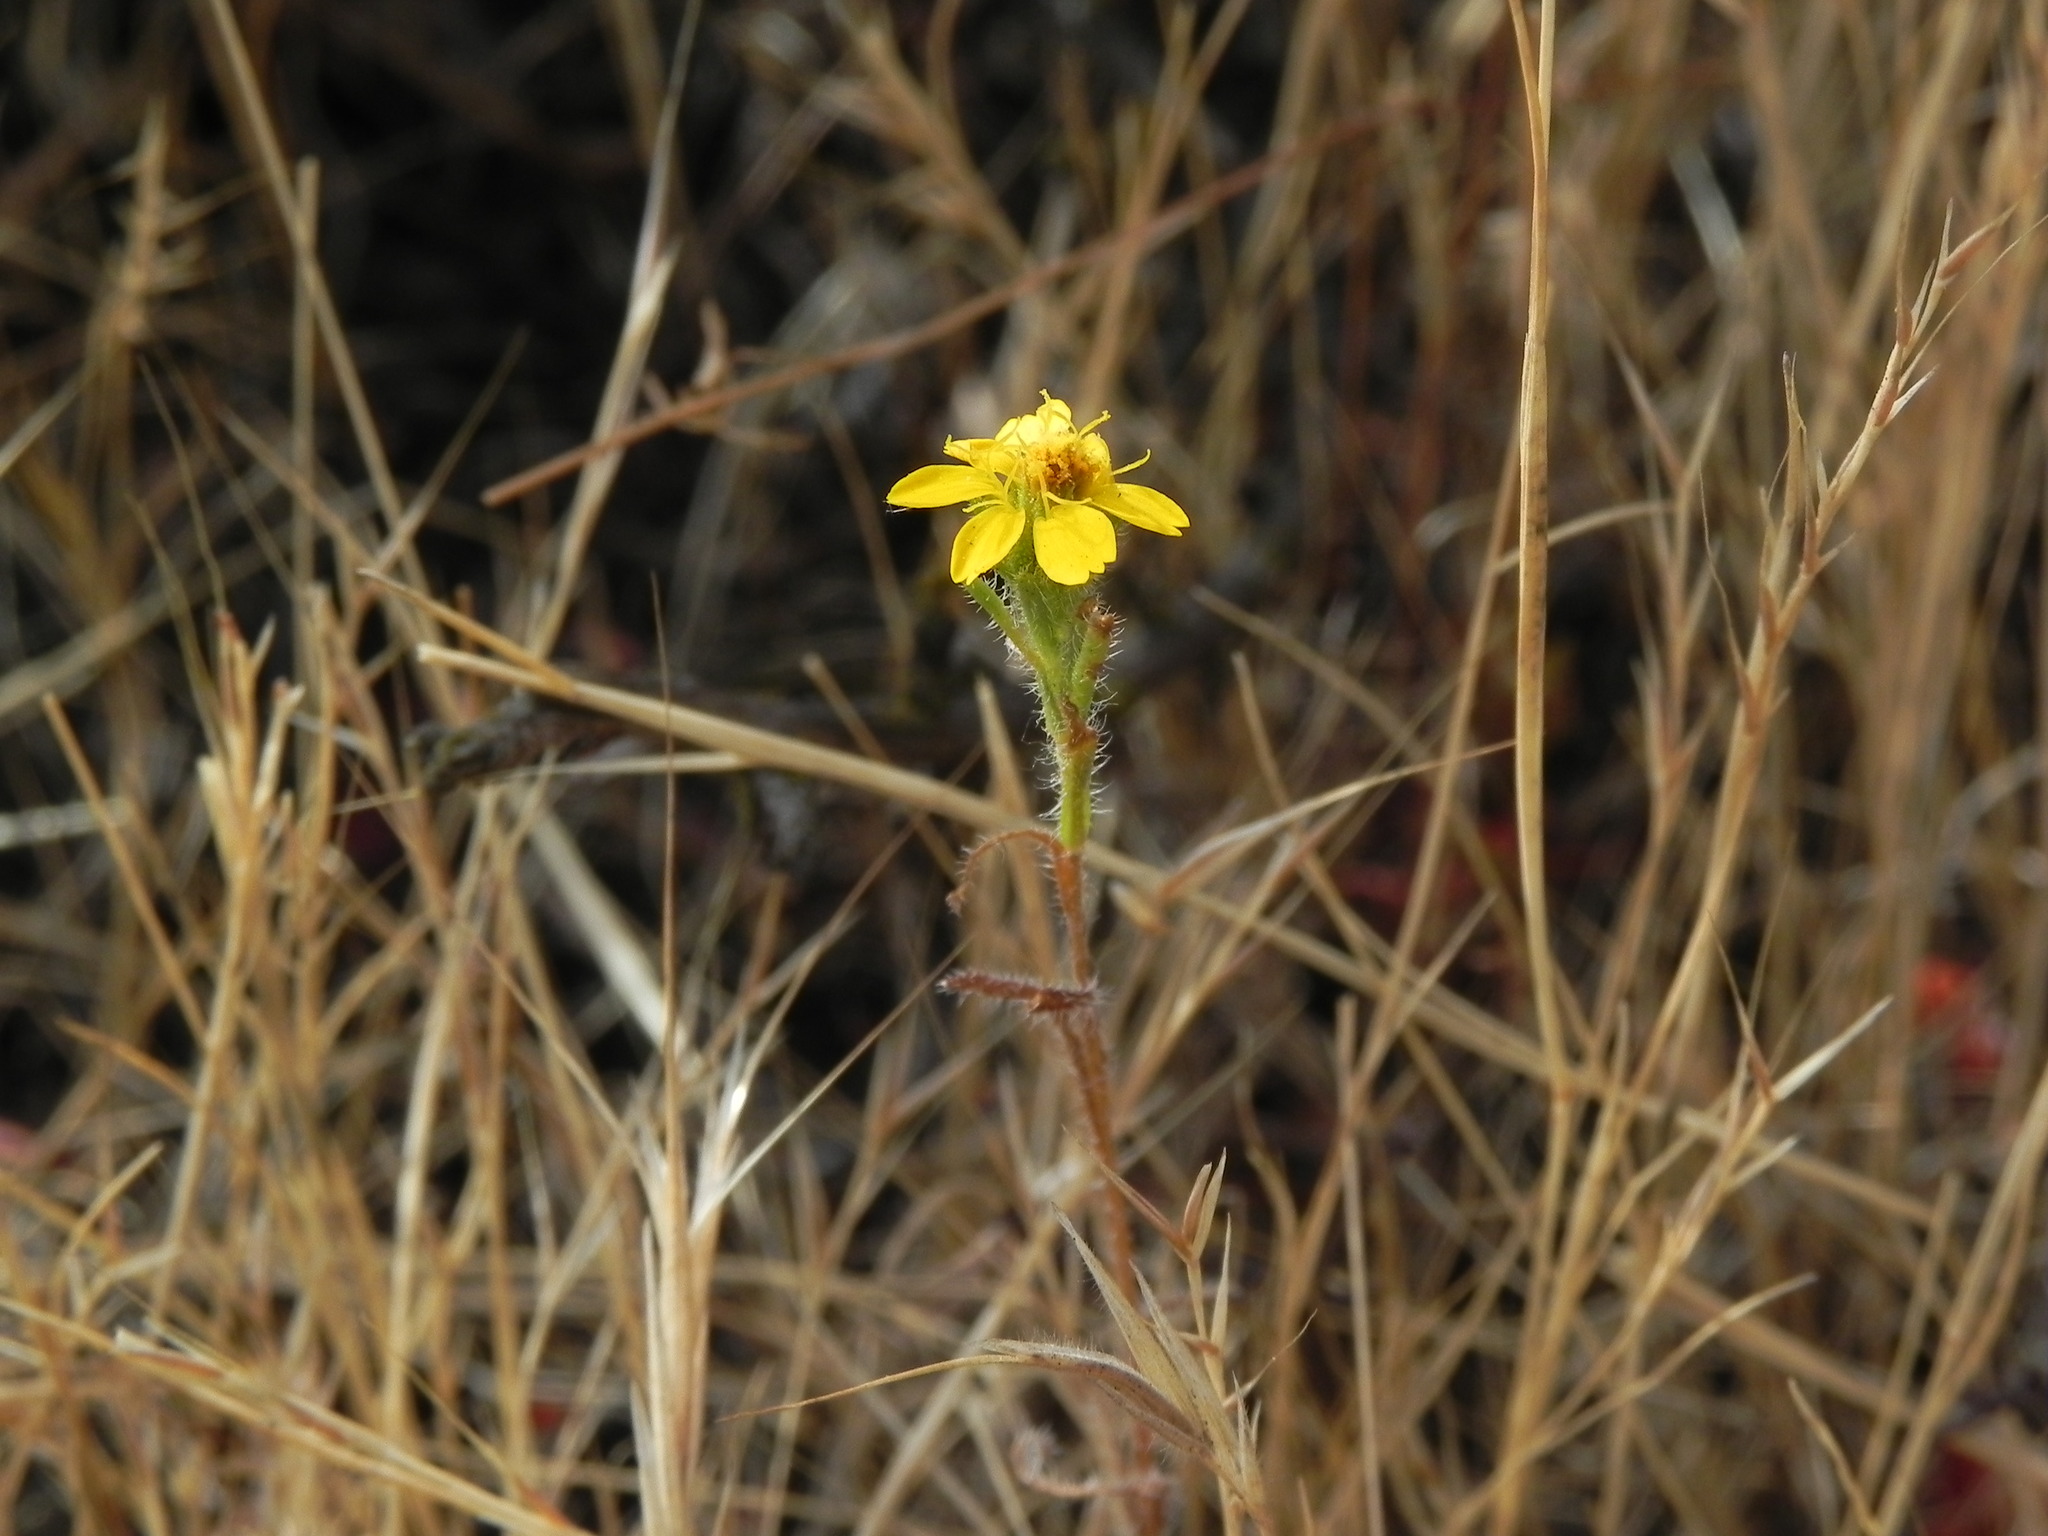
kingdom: Plantae
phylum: Tracheophyta
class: Magnoliopsida
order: Asterales
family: Asteraceae
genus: Deinandra
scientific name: Deinandra conjugens
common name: Otay tarplant
